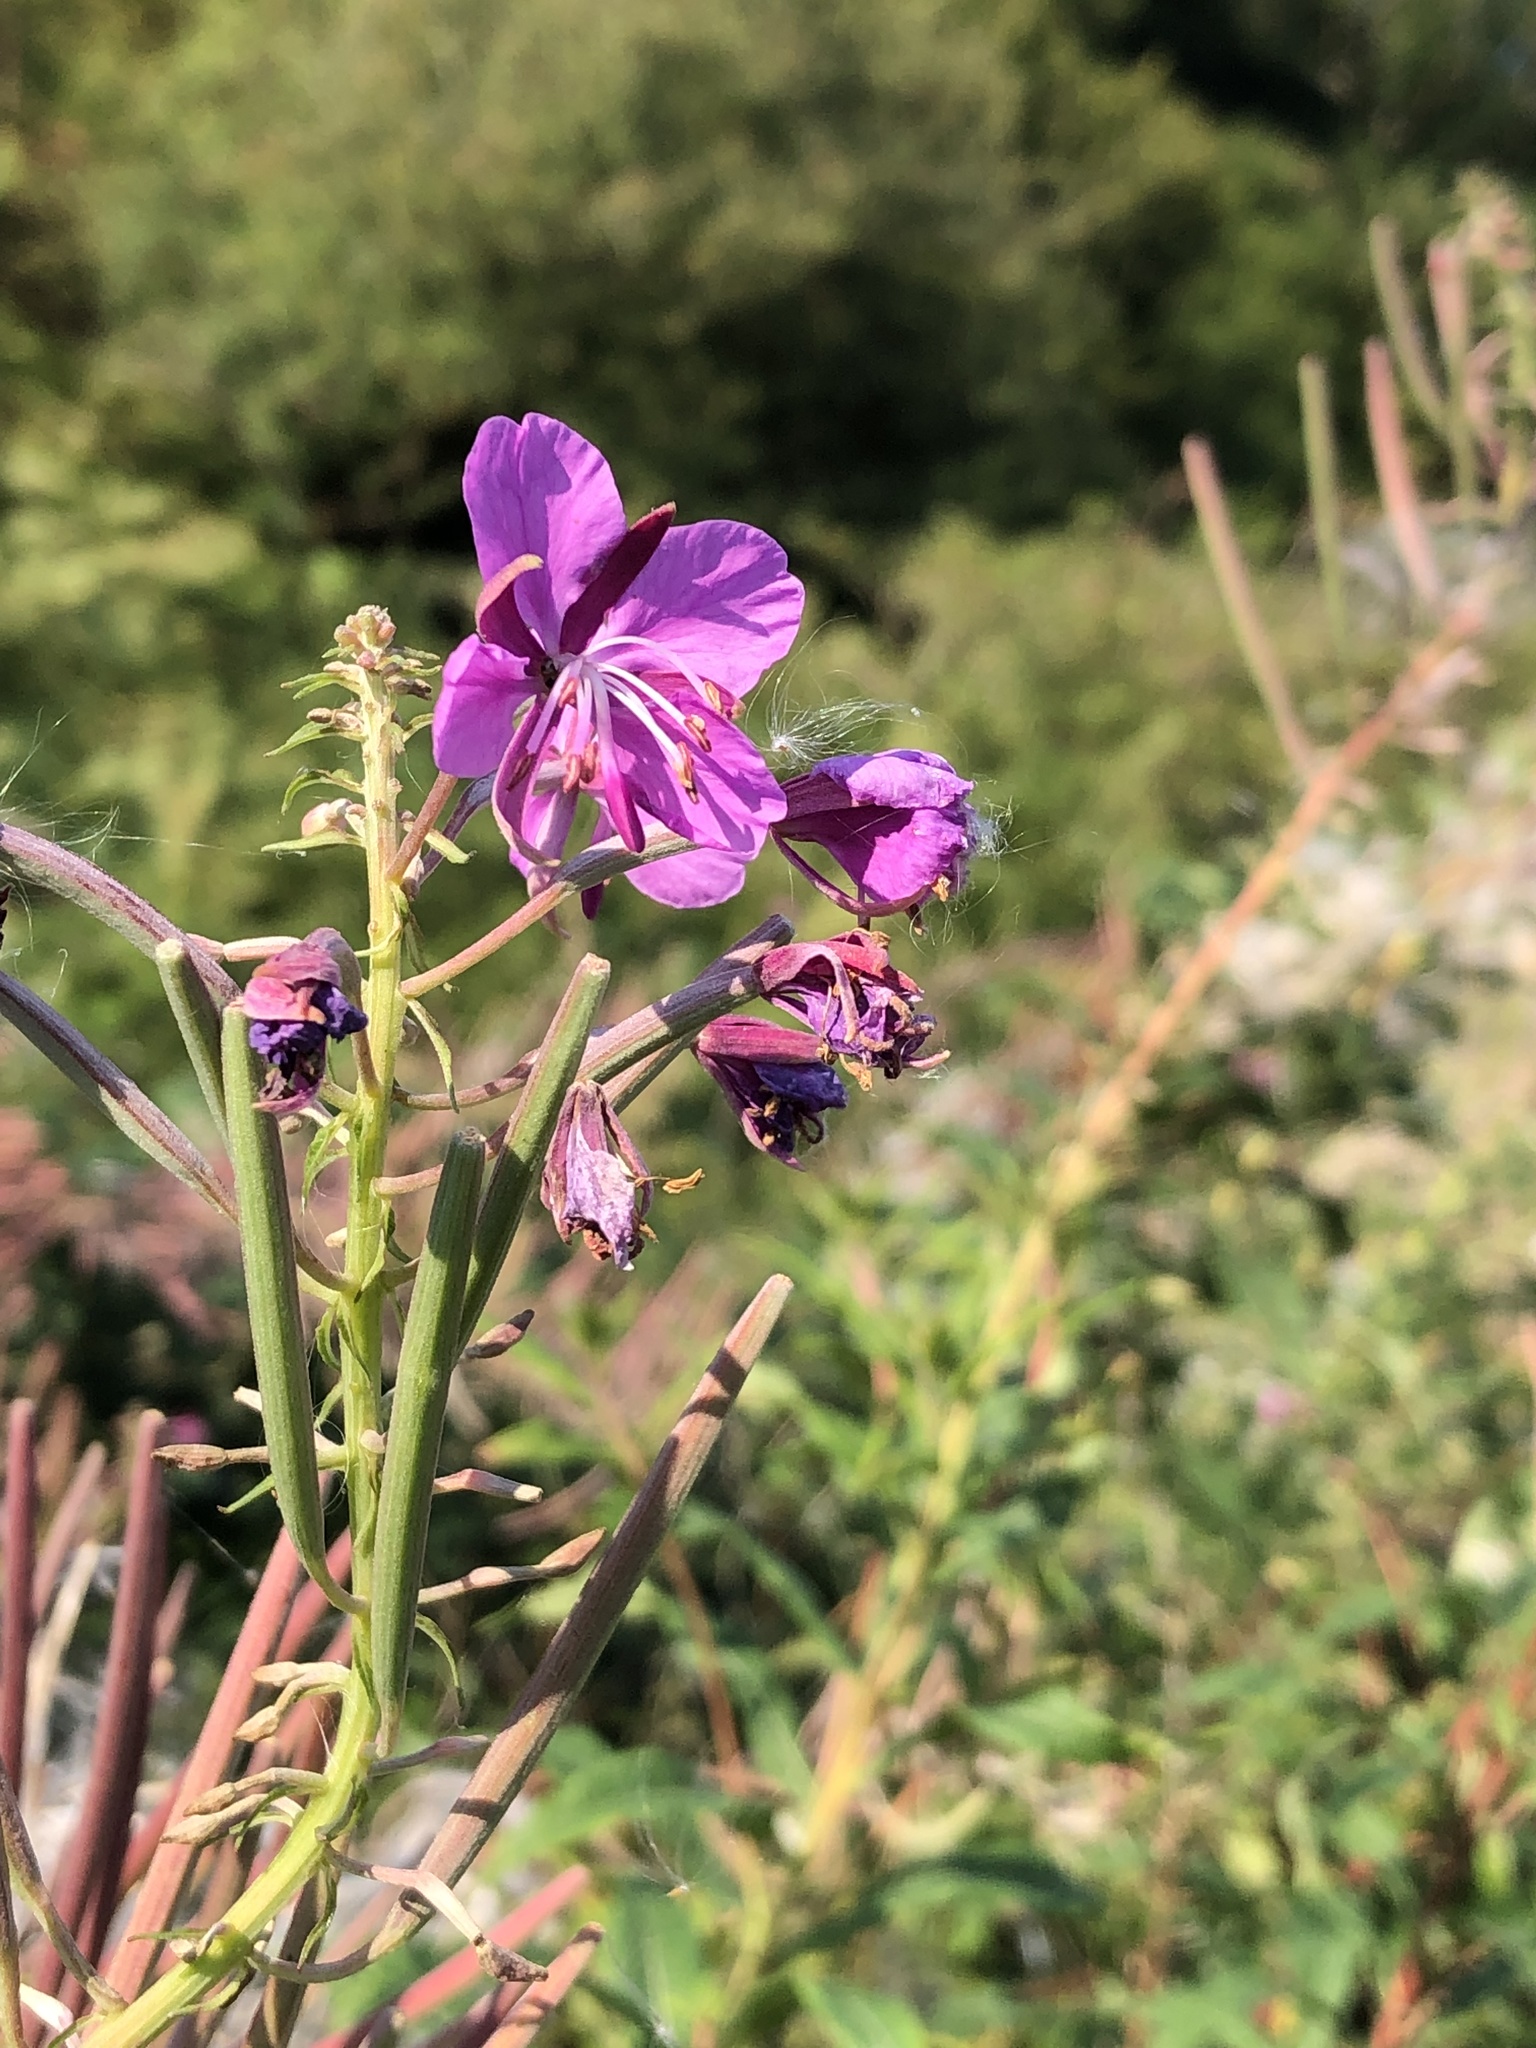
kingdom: Plantae
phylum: Tracheophyta
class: Magnoliopsida
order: Myrtales
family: Onagraceae
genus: Chamaenerion
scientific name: Chamaenerion angustifolium
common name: Fireweed
